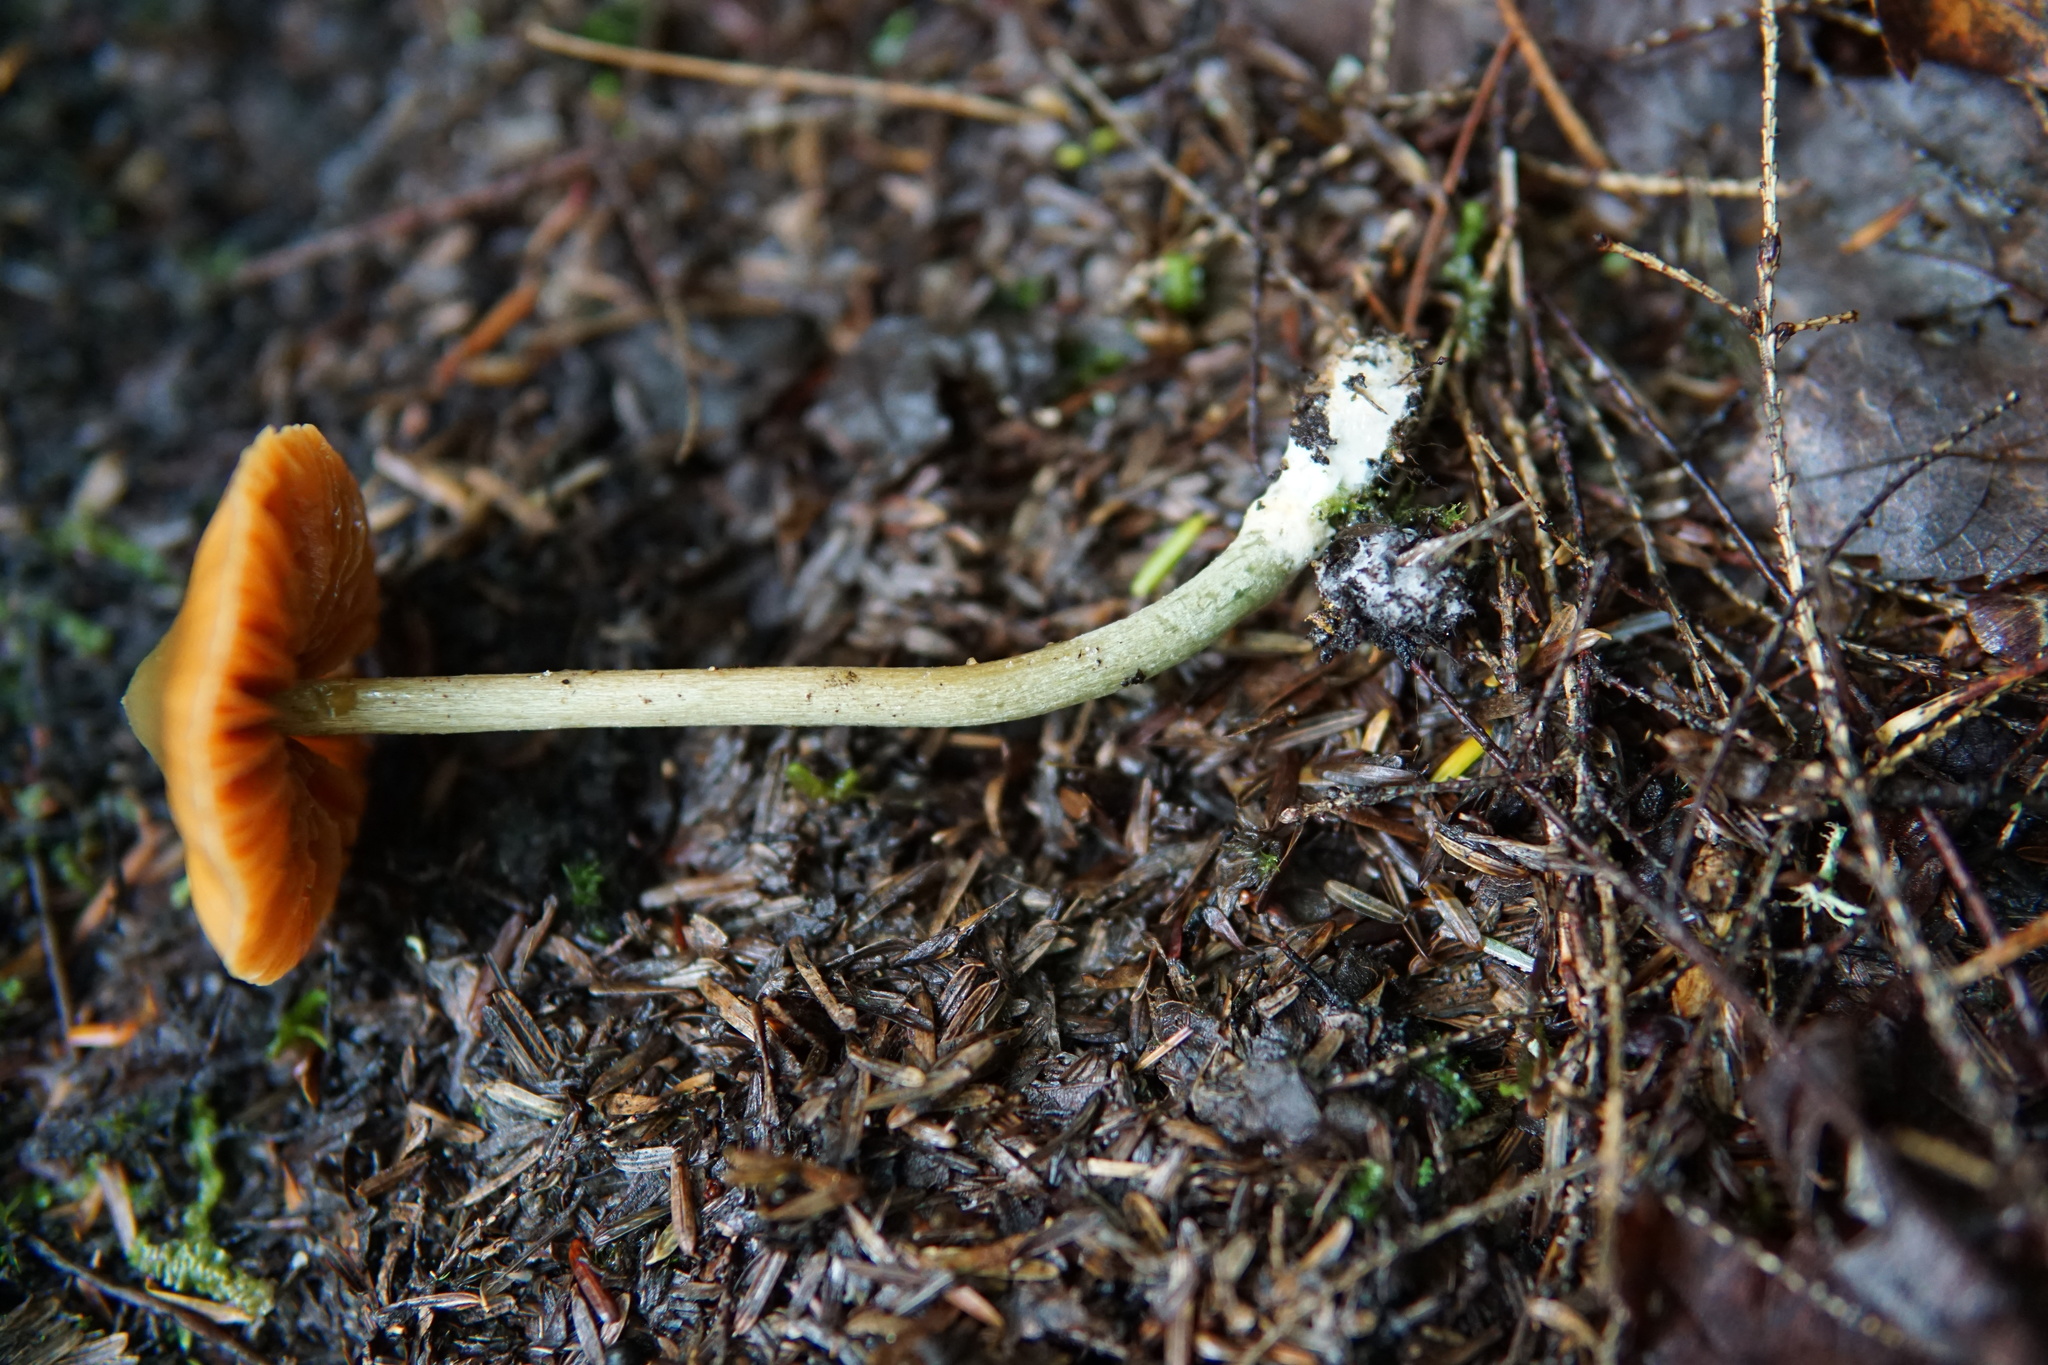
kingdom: Fungi
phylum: Basidiomycota
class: Agaricomycetes
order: Agaricales
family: Entolomataceae
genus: Entoloma
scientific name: Entoloma quadratum
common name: Salmon pinkgill
